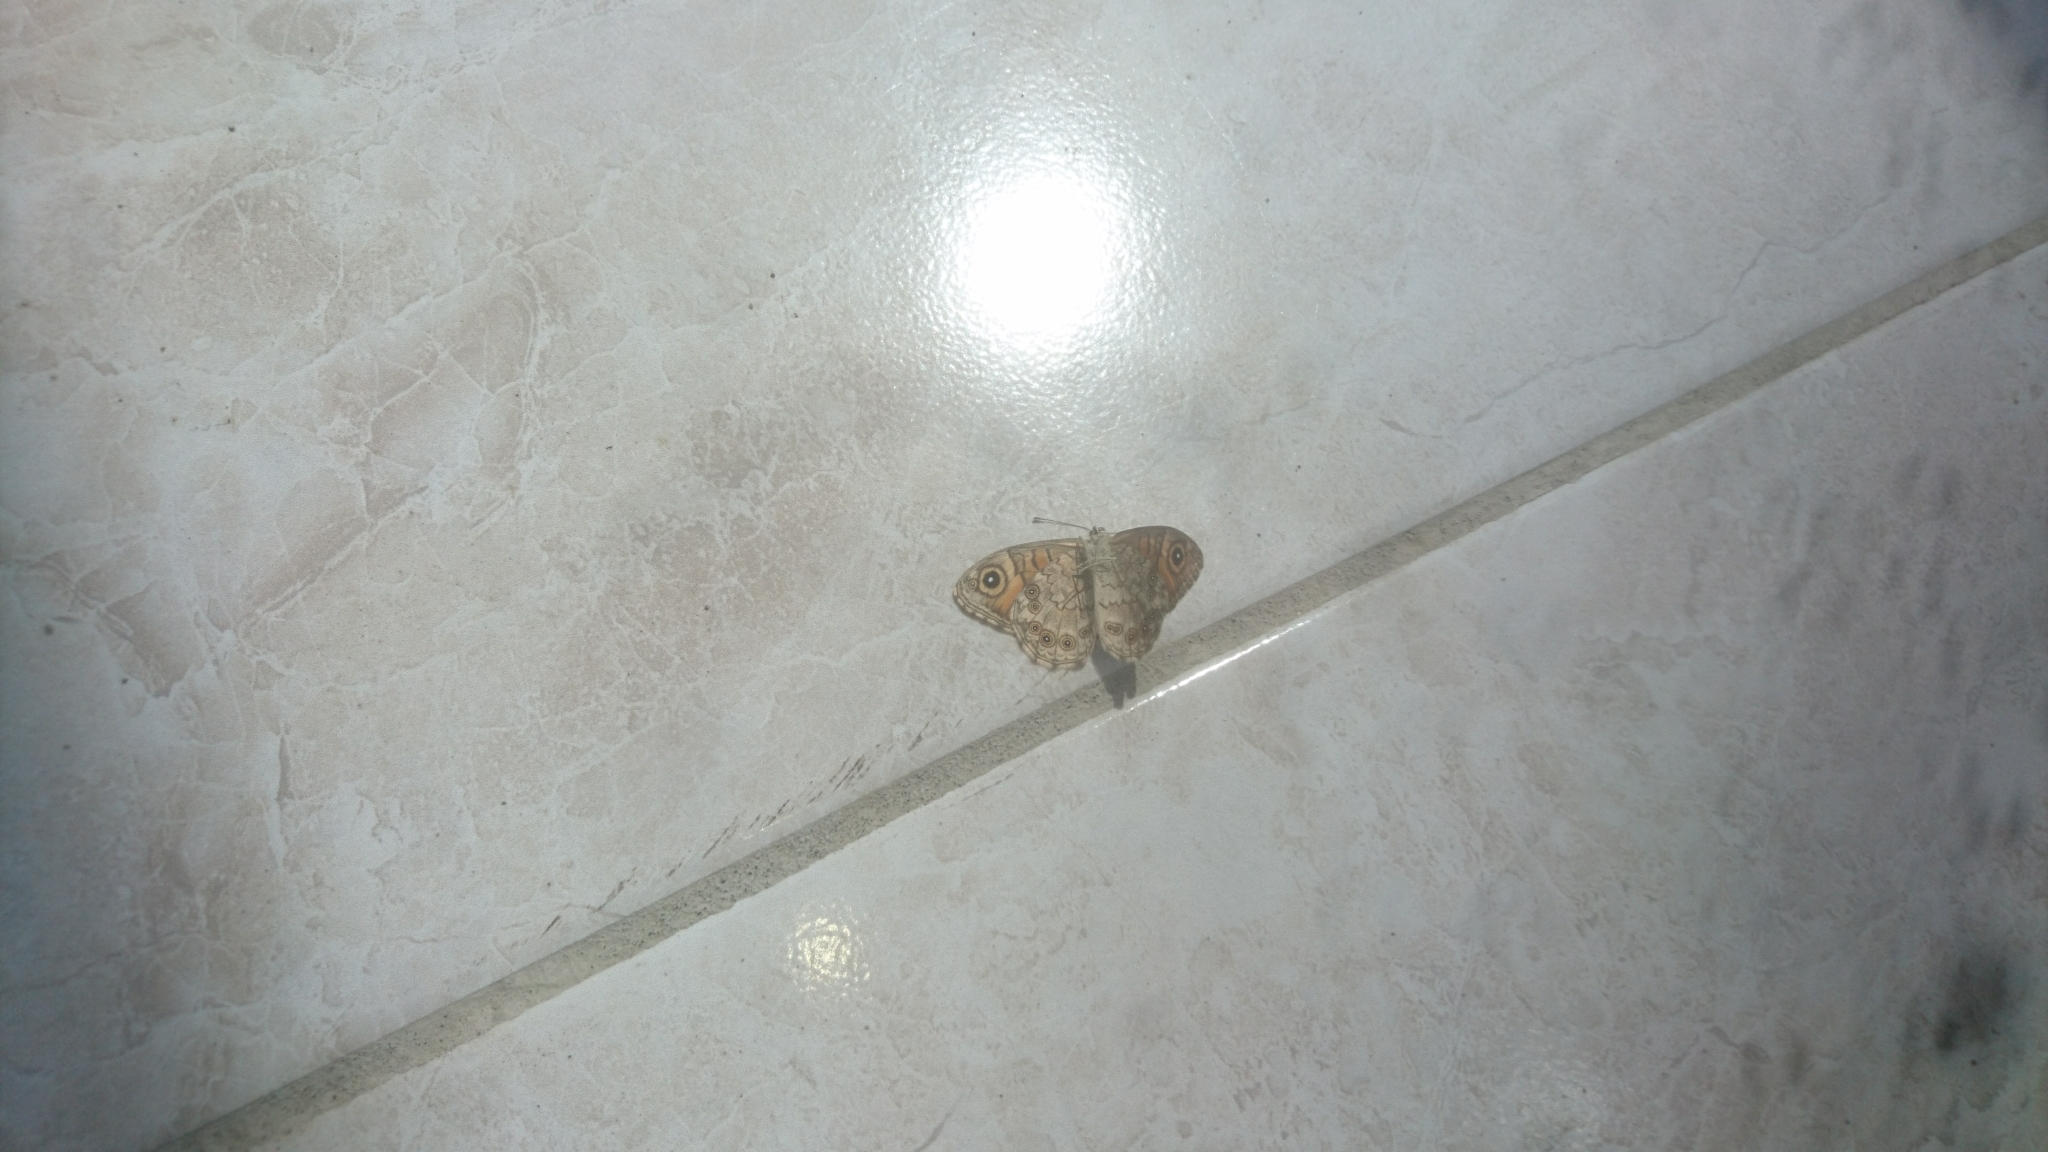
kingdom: Animalia
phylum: Arthropoda
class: Insecta
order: Lepidoptera
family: Nymphalidae
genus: Pararge
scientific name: Pararge Lasiommata maera
